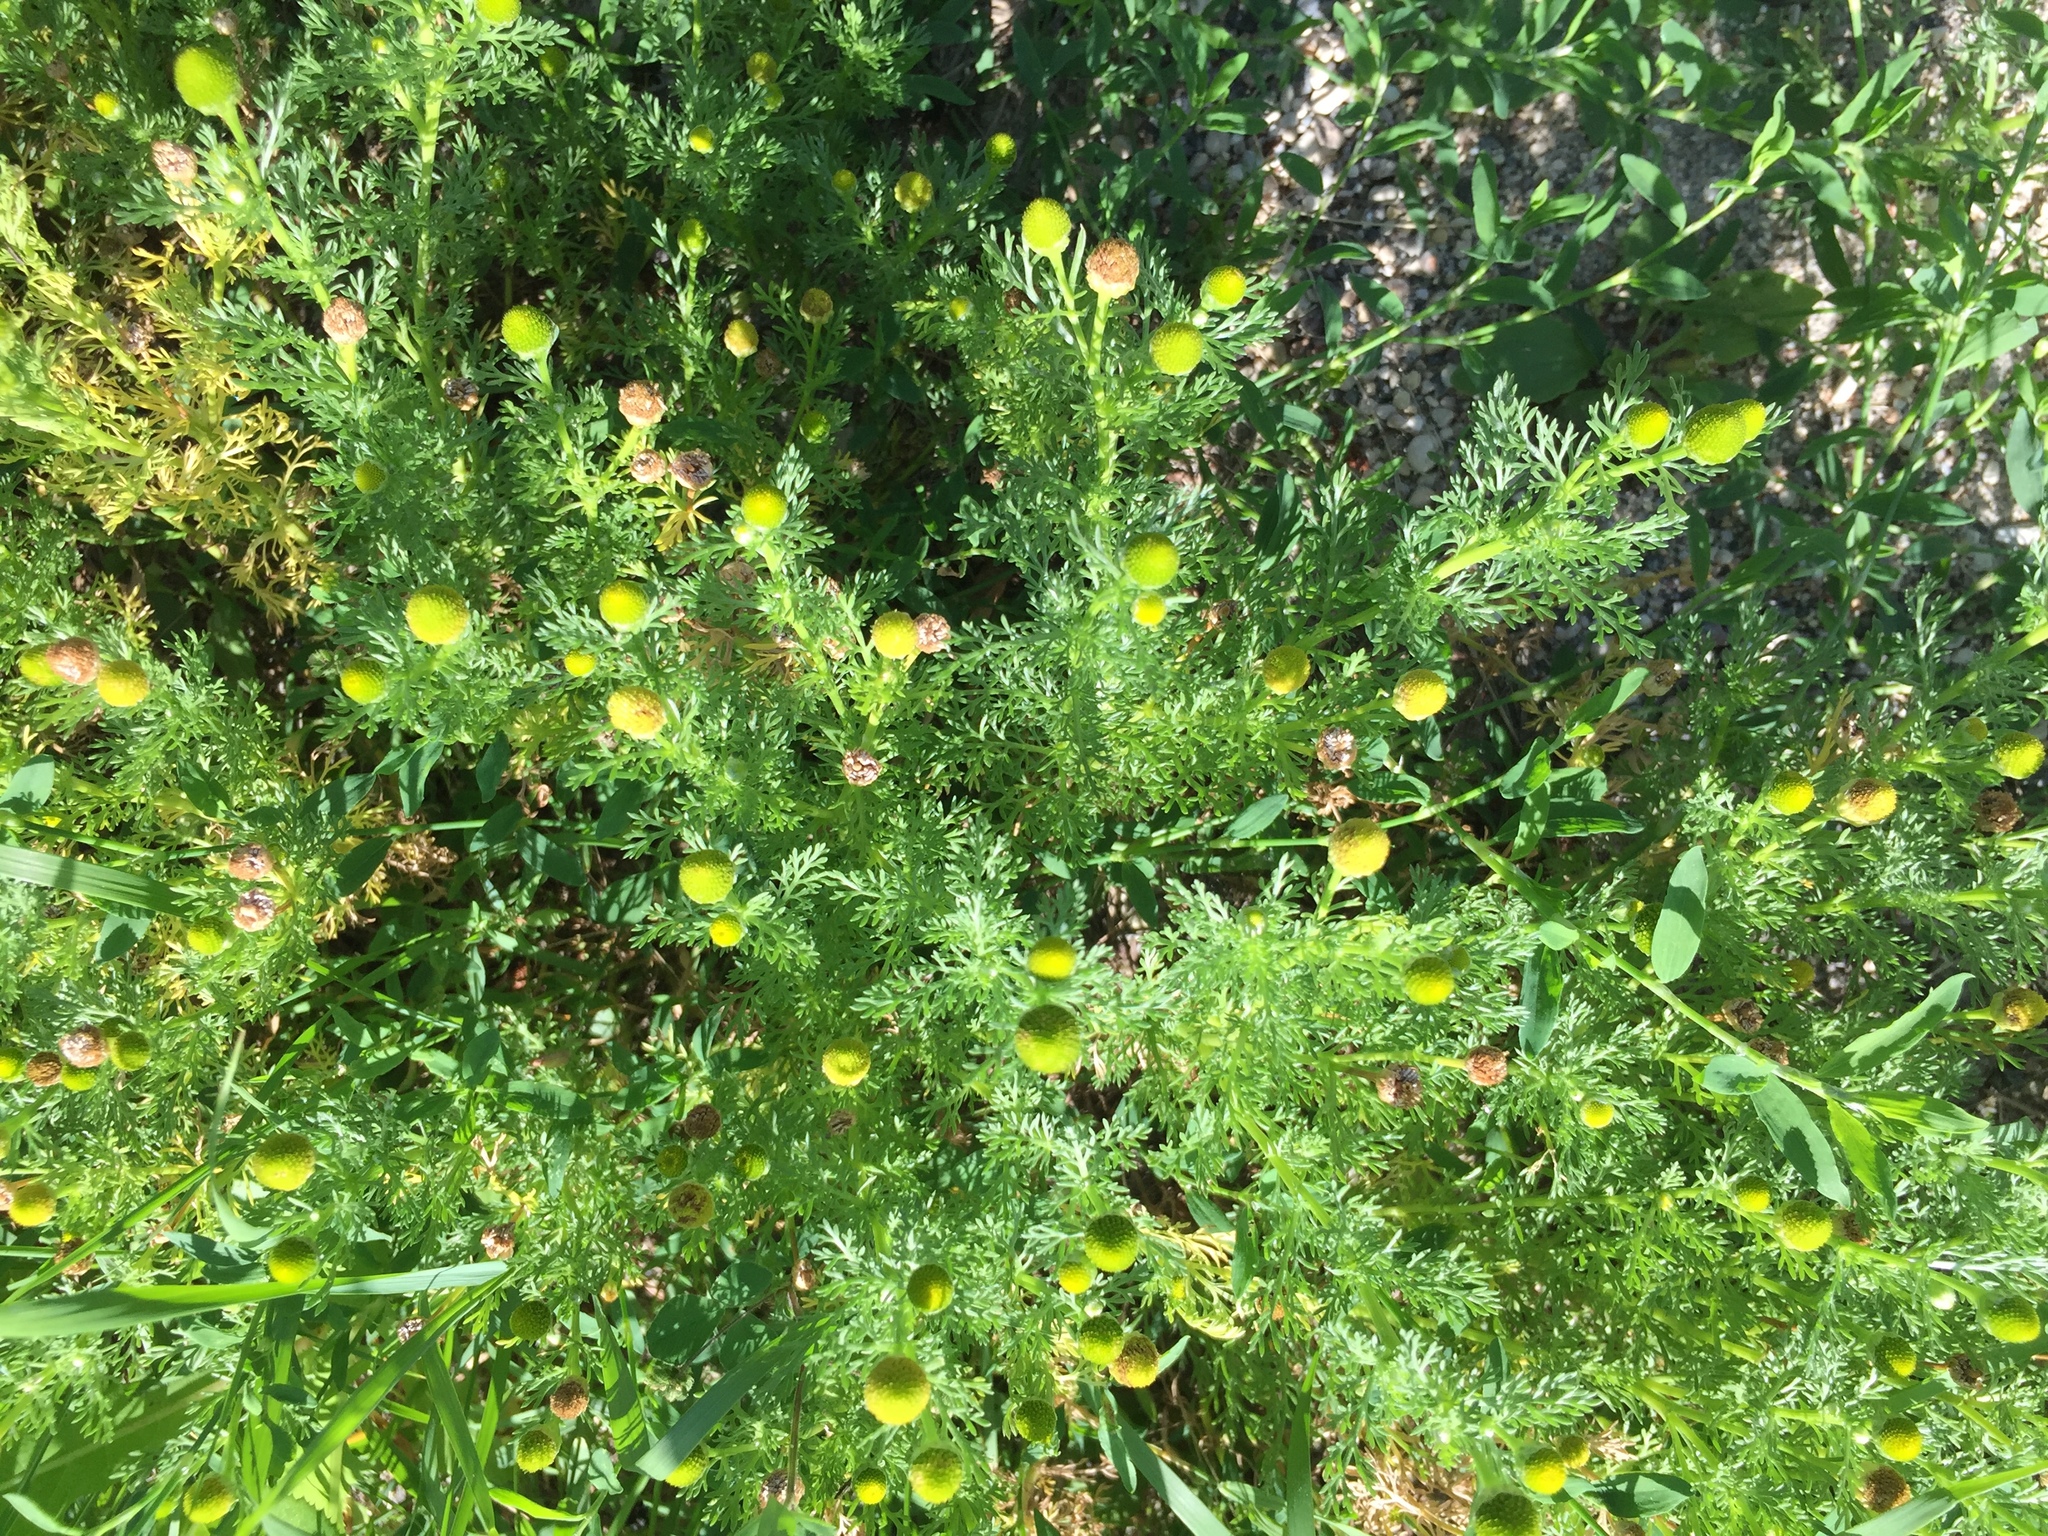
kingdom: Plantae
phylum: Tracheophyta
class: Magnoliopsida
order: Asterales
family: Asteraceae
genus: Matricaria
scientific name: Matricaria discoidea
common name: Disc mayweed
